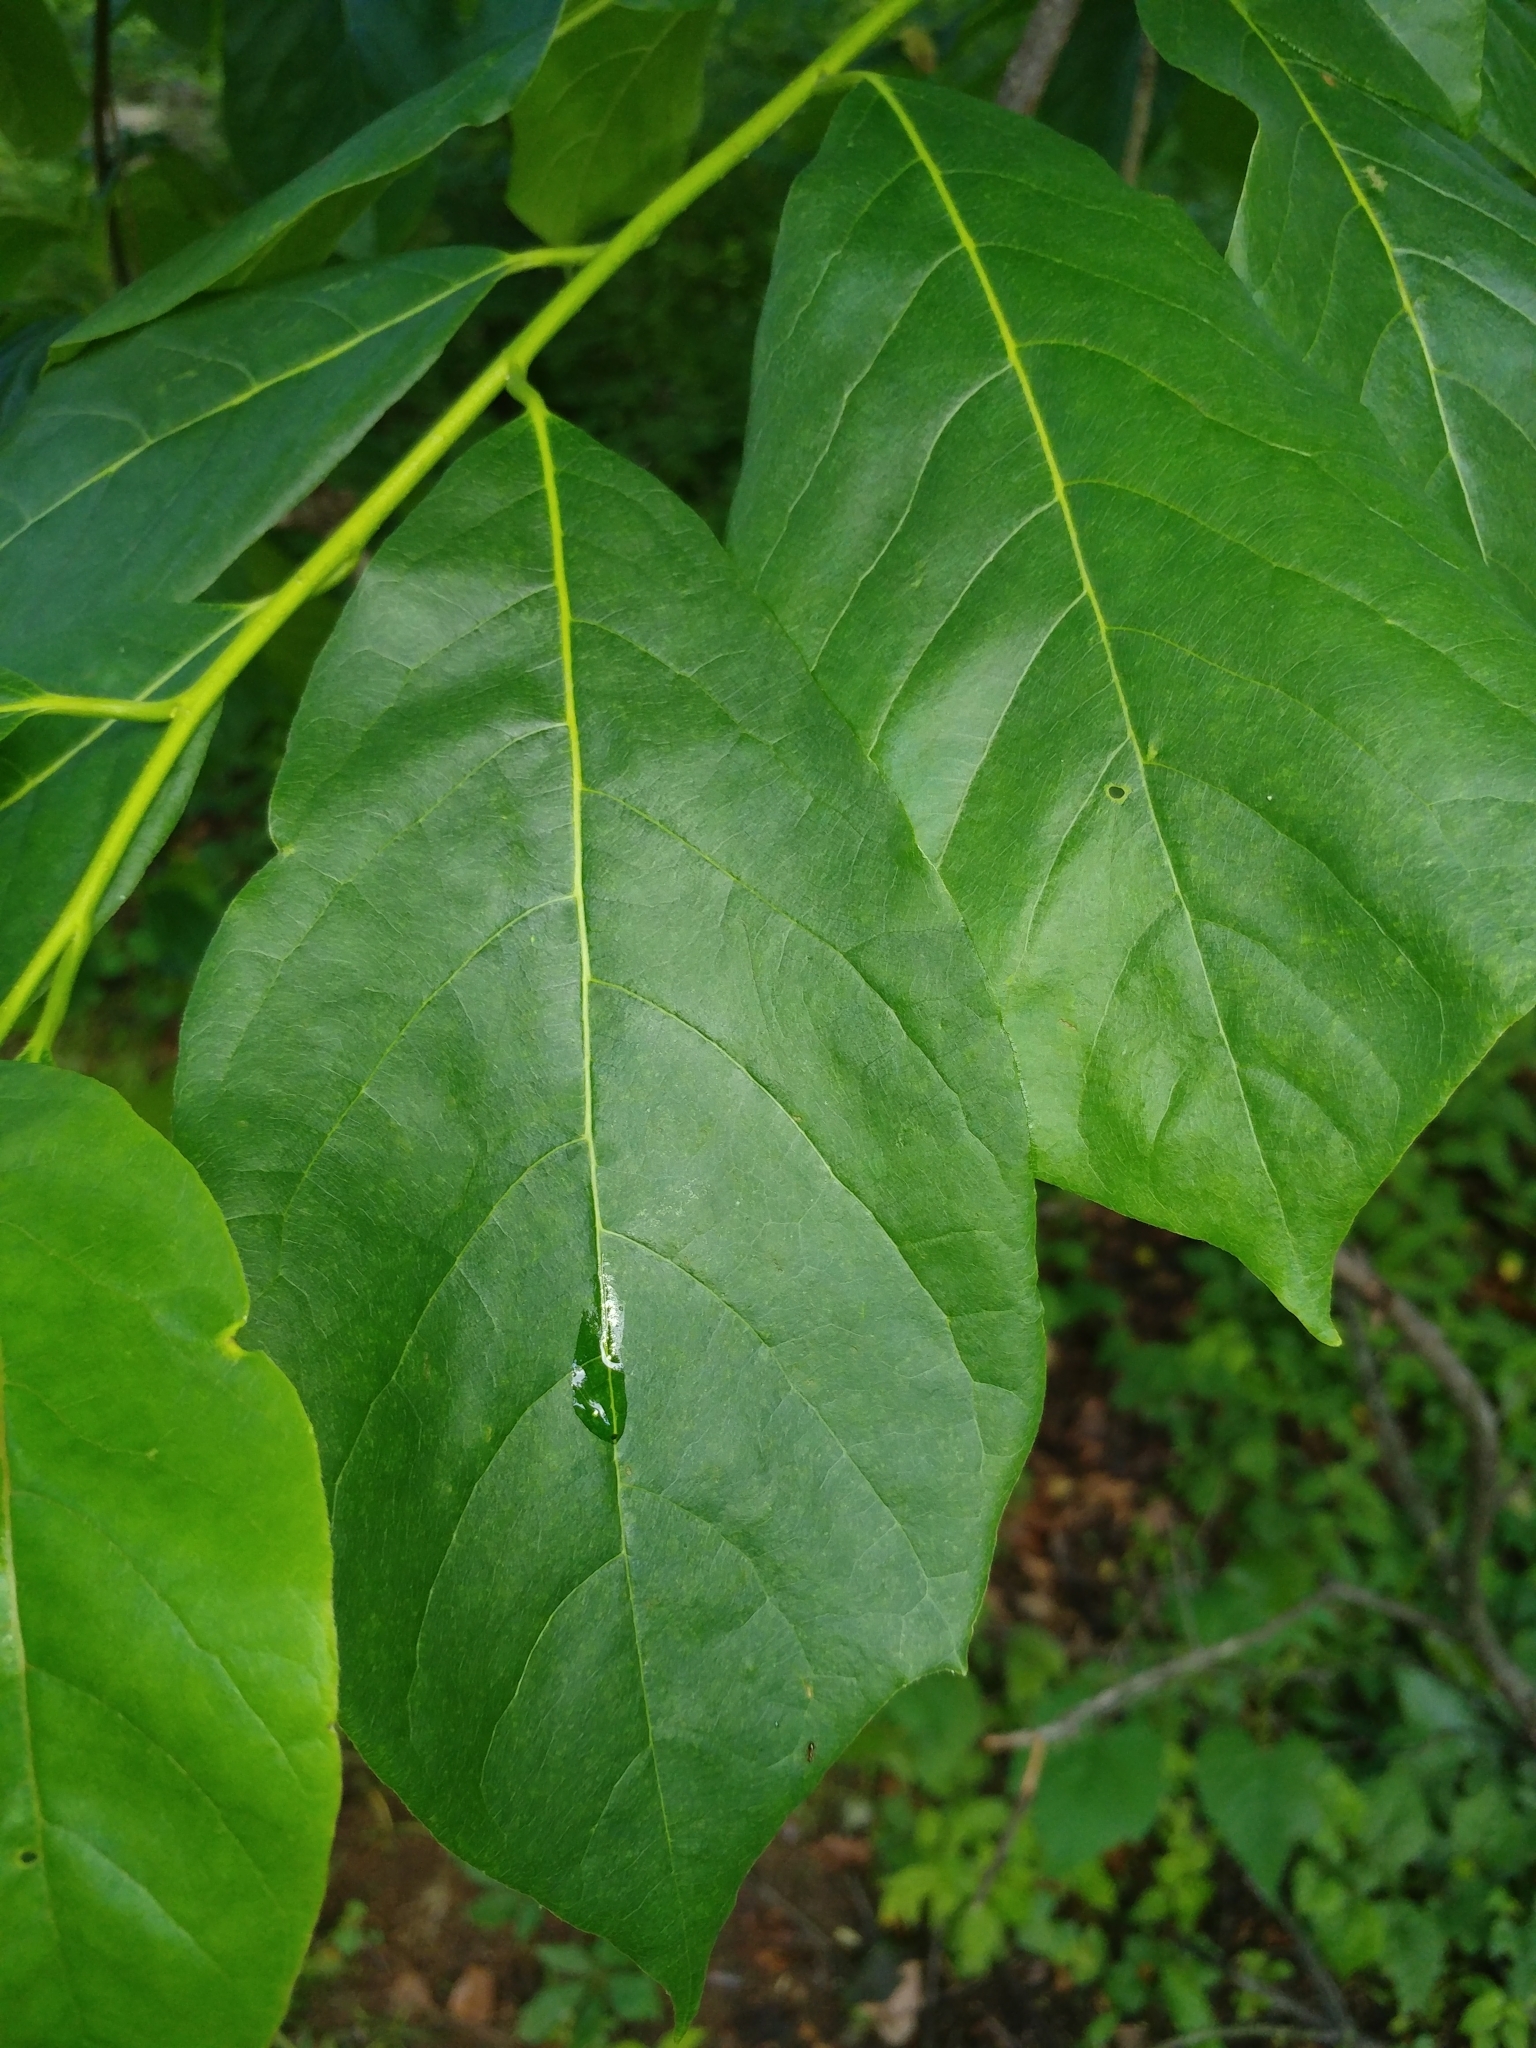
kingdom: Plantae
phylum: Tracheophyta
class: Magnoliopsida
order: Cornales
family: Nyssaceae
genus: Nyssa
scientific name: Nyssa sylvatica
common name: Black tupelo
